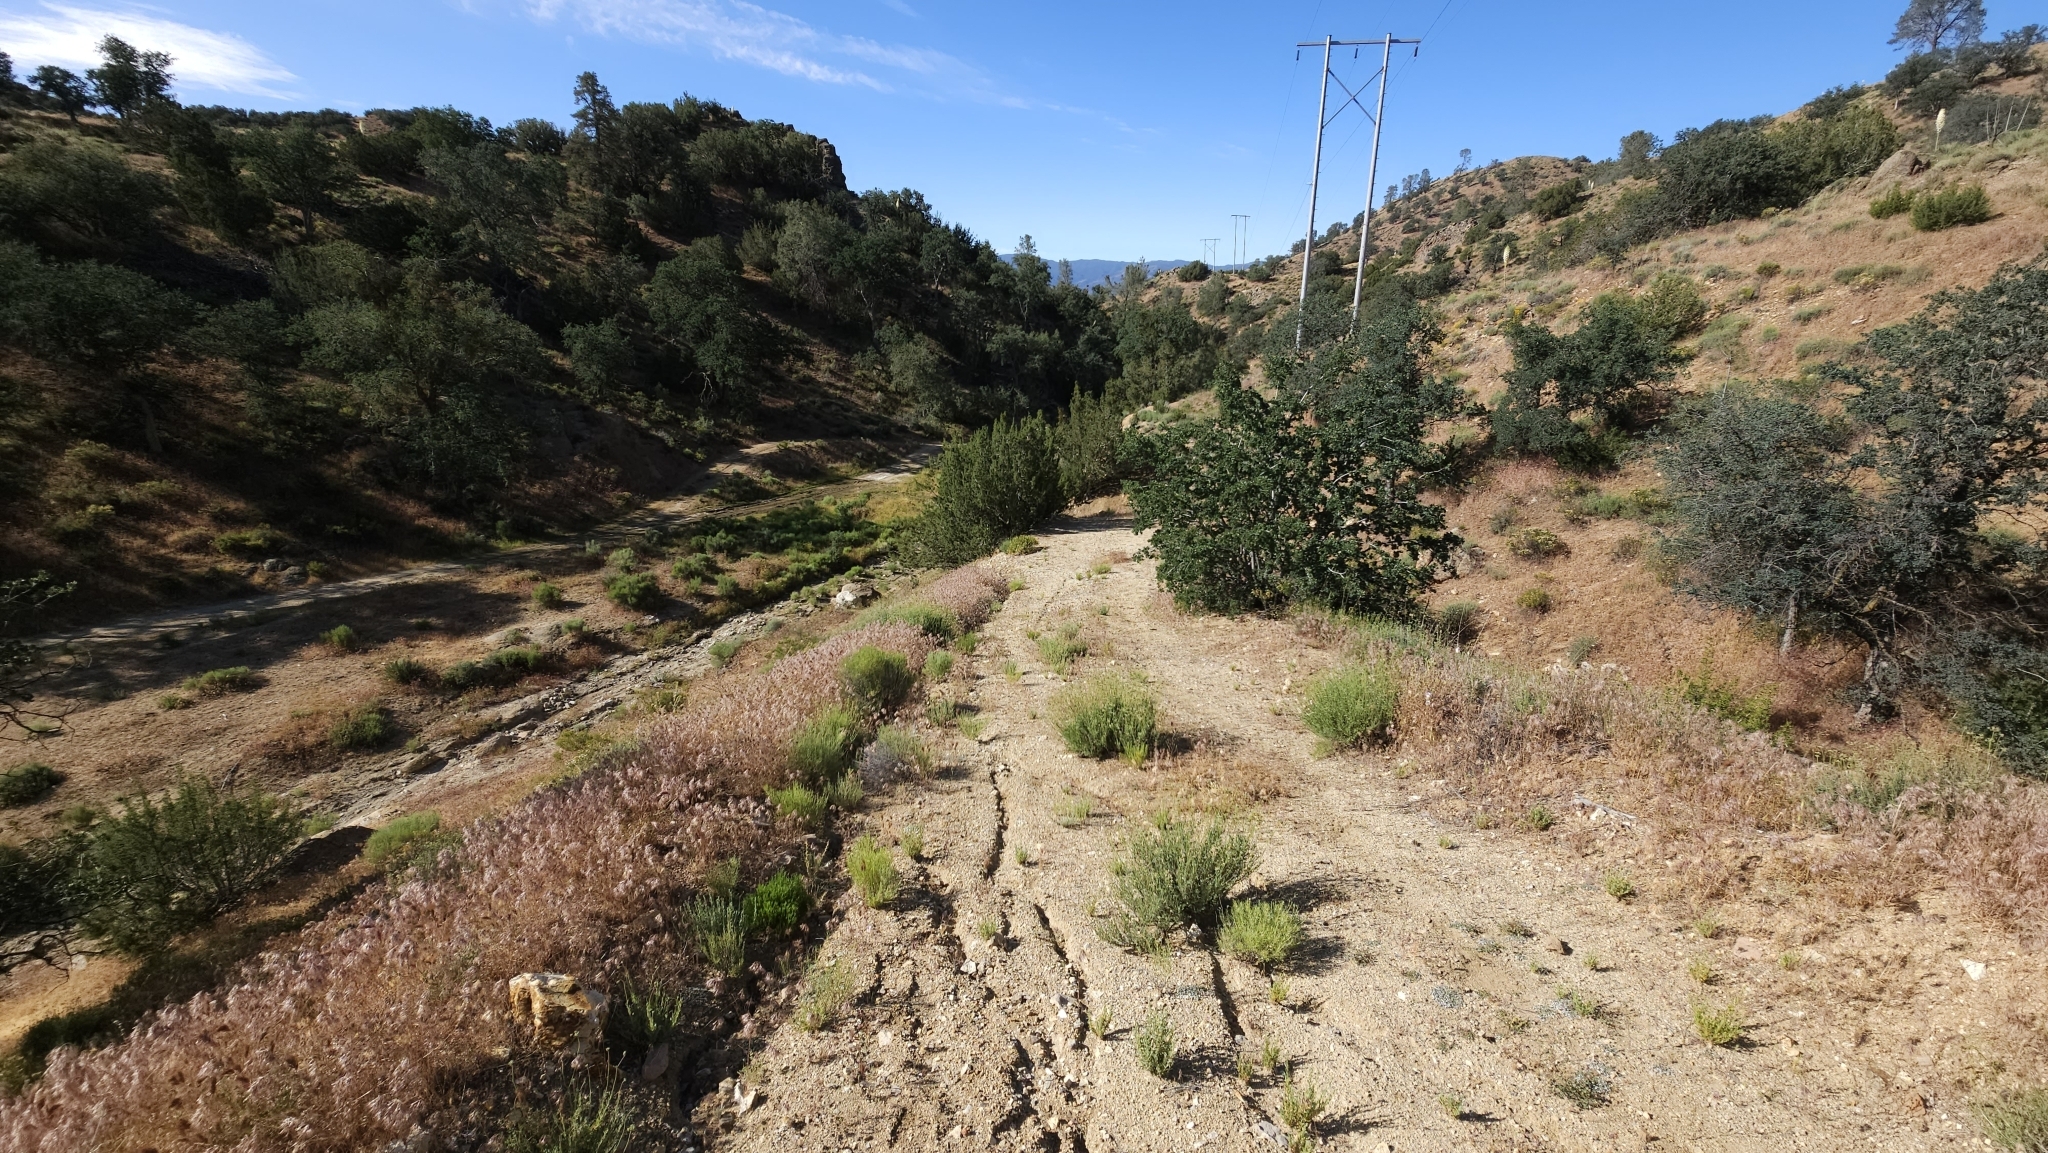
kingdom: Plantae
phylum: Tracheophyta
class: Magnoliopsida
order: Ericales
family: Polemoniaceae
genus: Eriastrum
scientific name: Eriastrum tracyi
